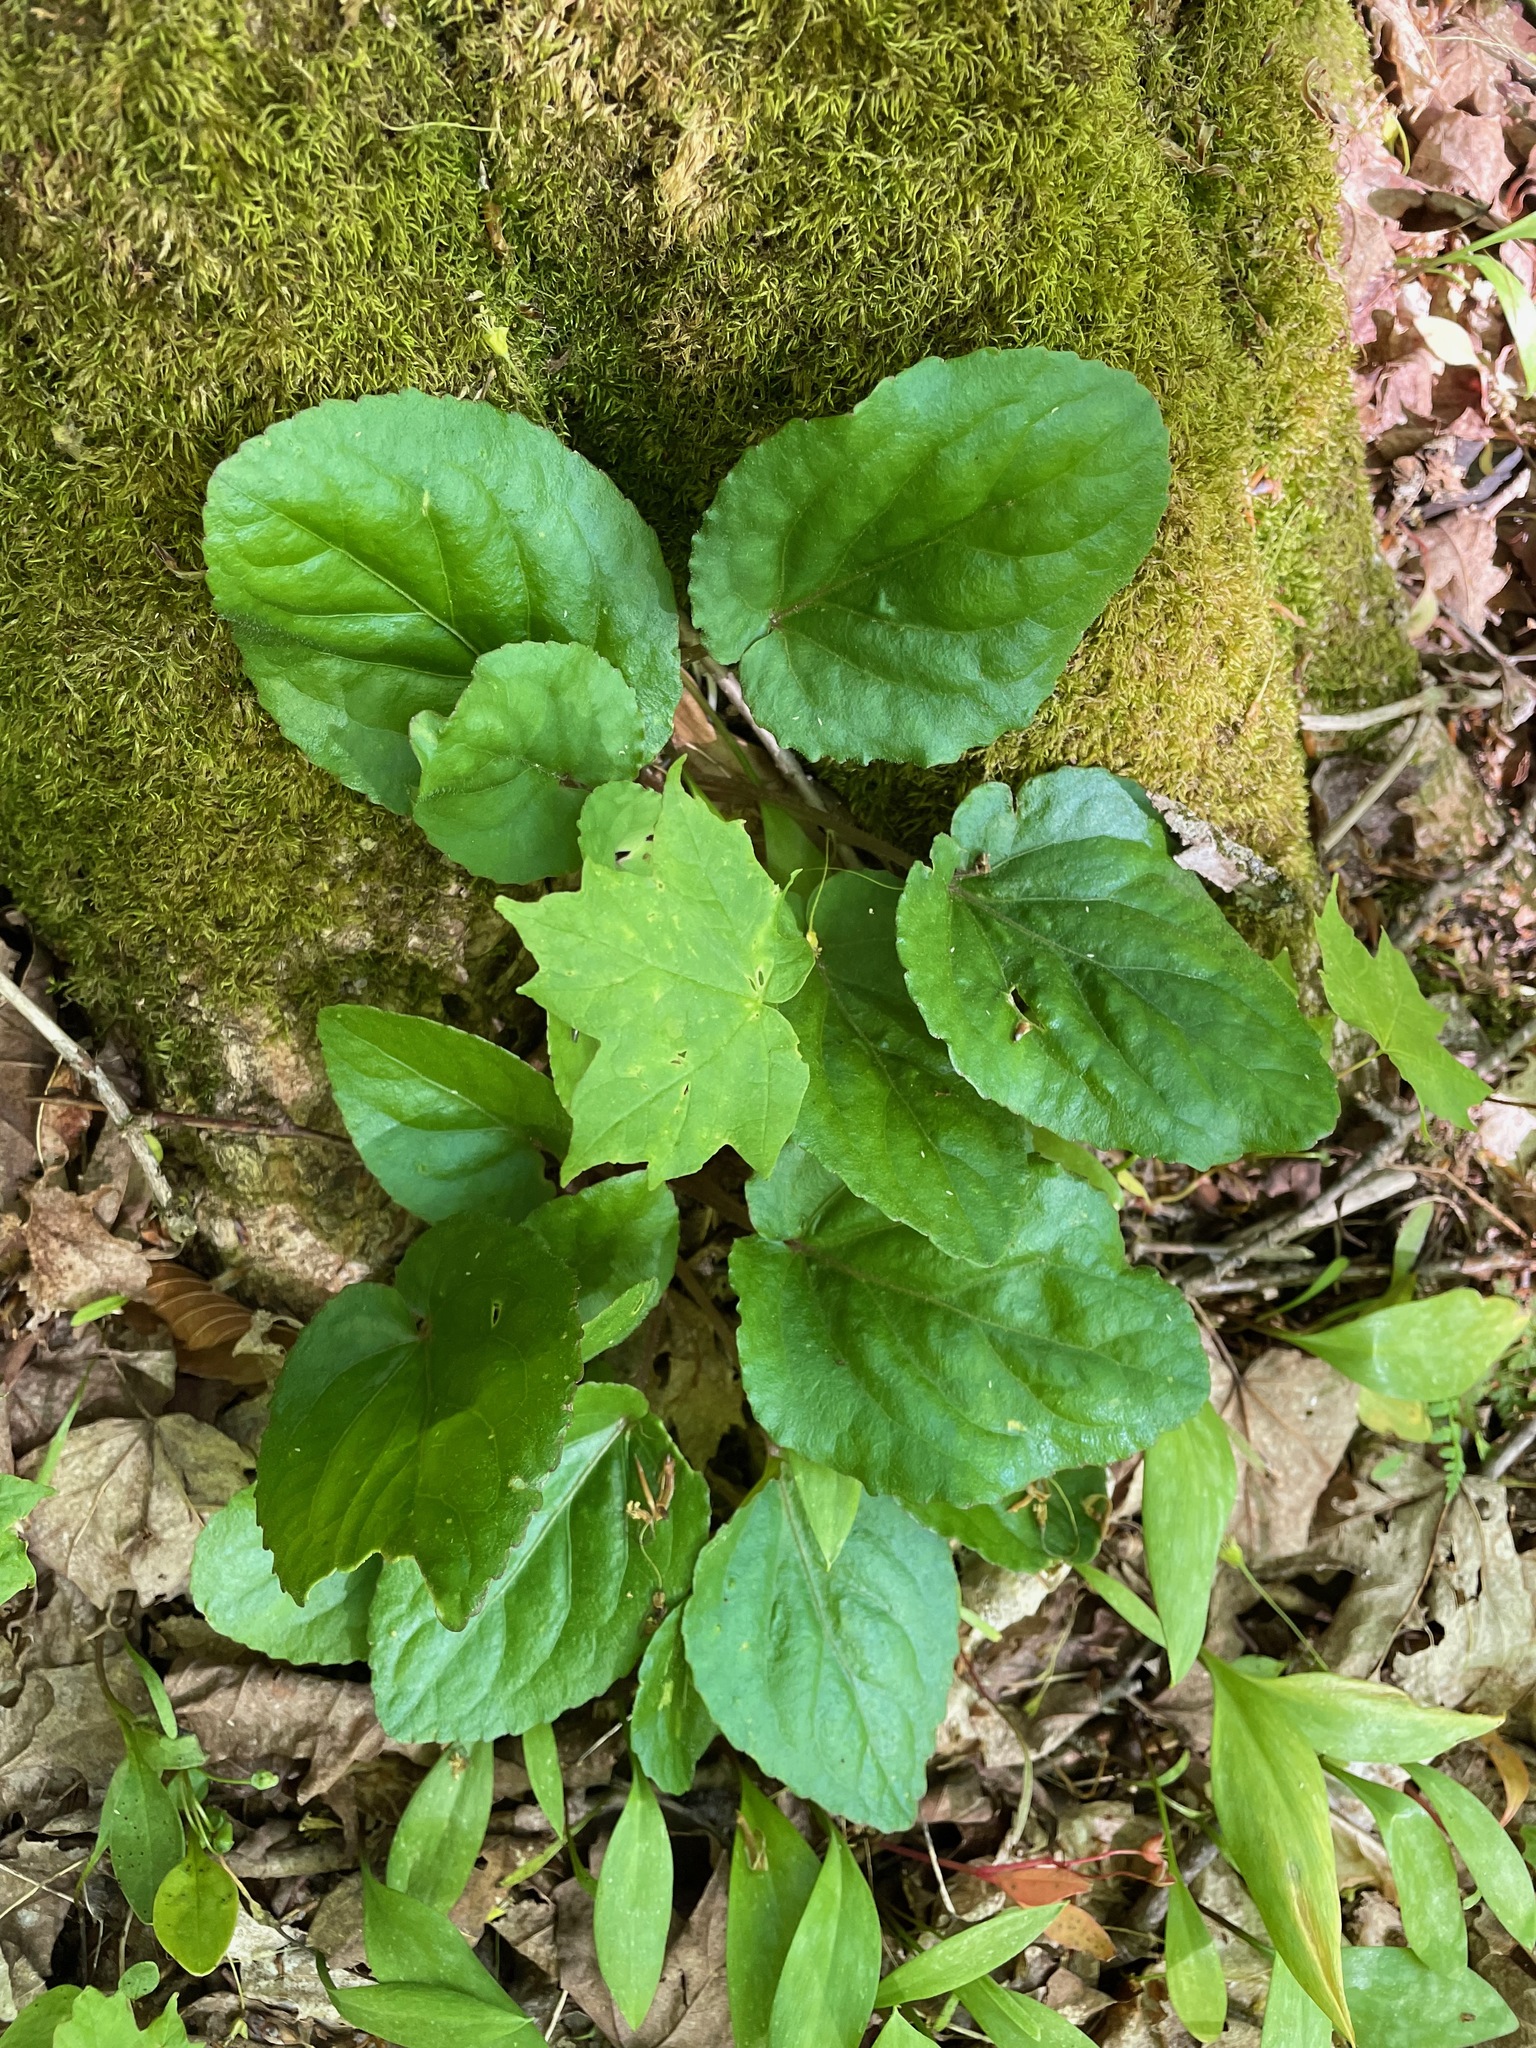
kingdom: Plantae
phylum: Tracheophyta
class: Magnoliopsida
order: Malpighiales
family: Violaceae
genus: Viola
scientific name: Viola rotundifolia
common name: Early yellow violet
